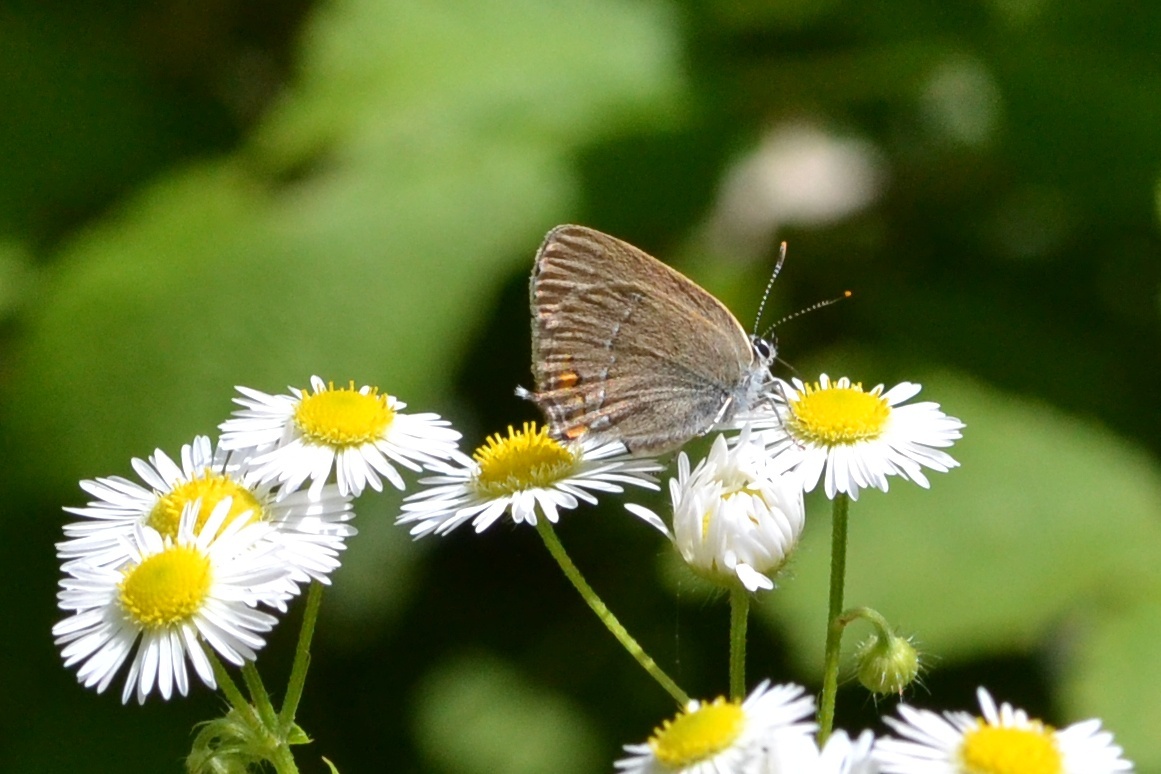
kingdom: Animalia
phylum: Arthropoda
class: Insecta
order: Lepidoptera
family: Lycaenidae
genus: Strymon
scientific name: Strymon acaciae
